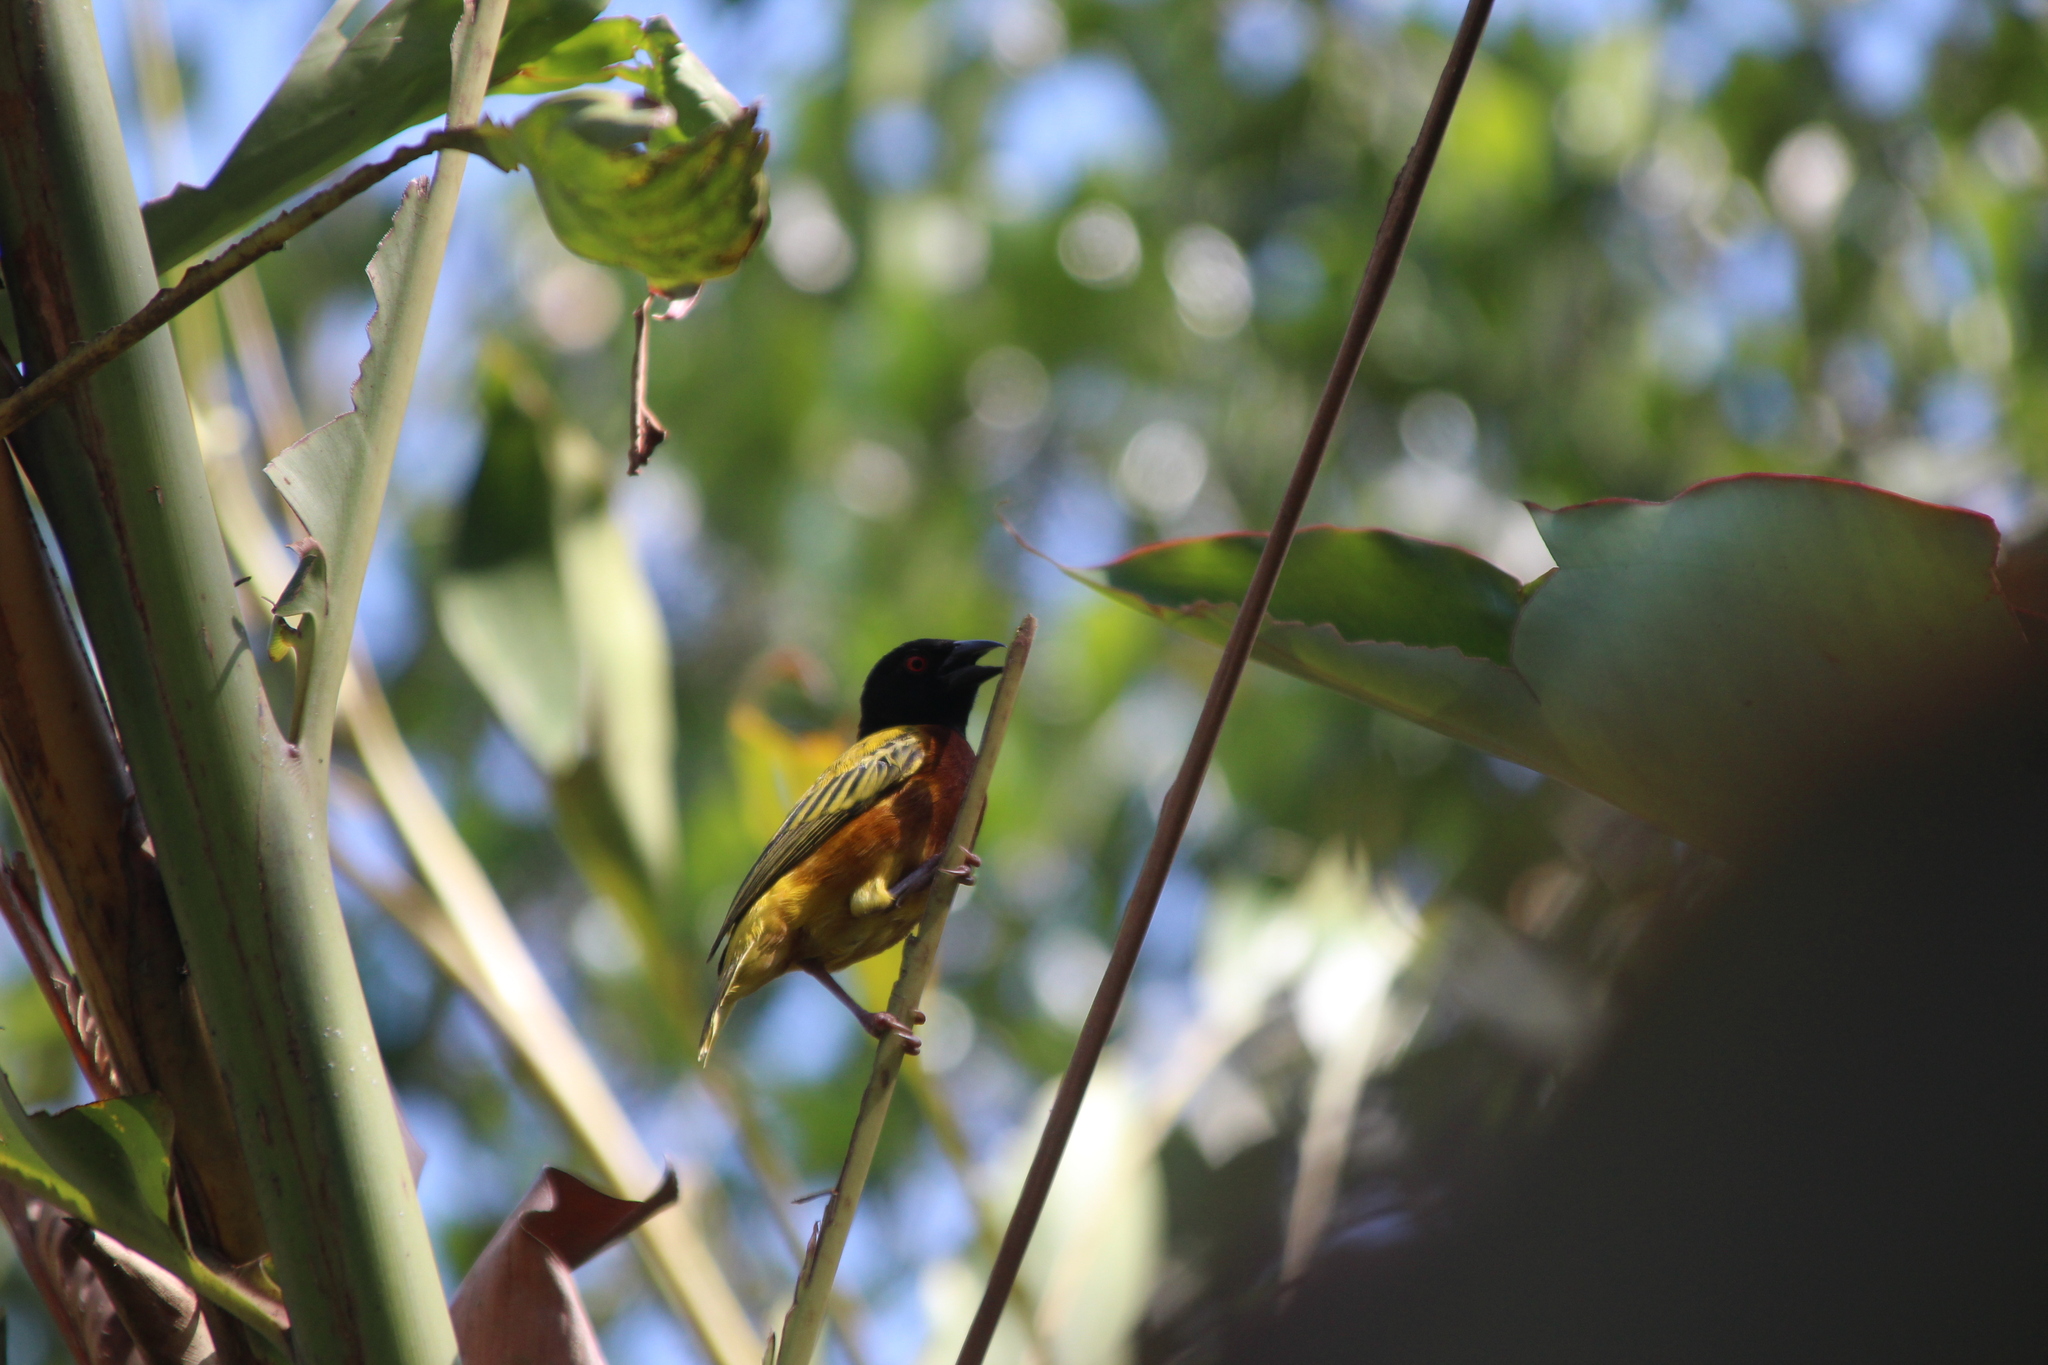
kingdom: Animalia
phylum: Chordata
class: Aves
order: Passeriformes
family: Ploceidae
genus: Ploceus
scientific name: Ploceus jacksoni
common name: Golden-backed weaver
